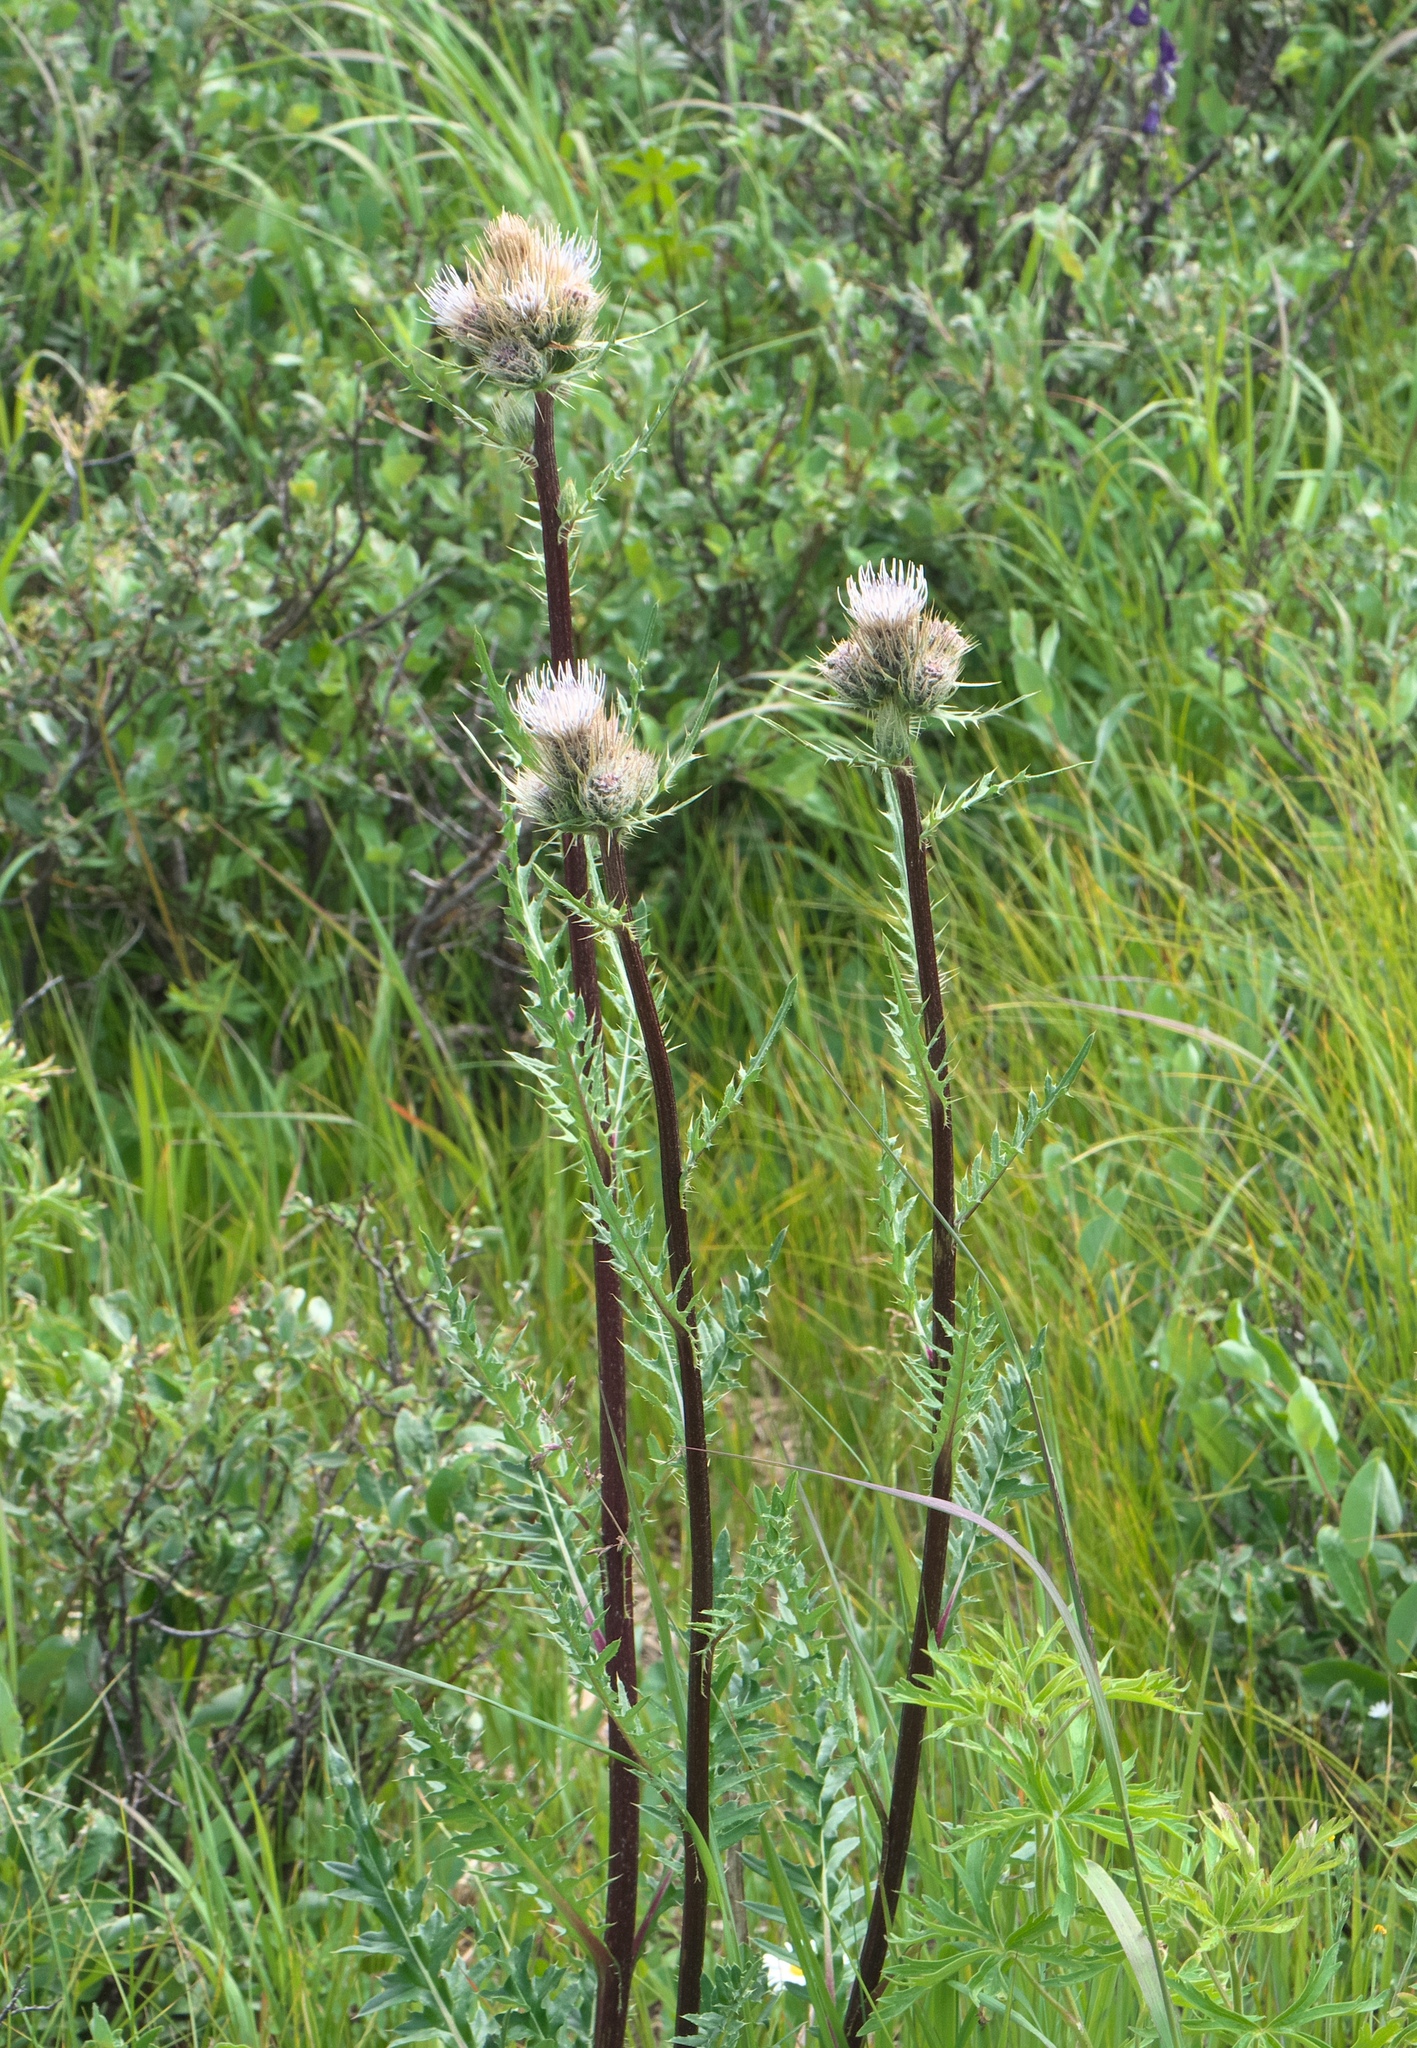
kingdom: Plantae
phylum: Tracheophyta
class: Magnoliopsida
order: Asterales
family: Asteraceae
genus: Cirsium
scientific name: Cirsium griseum
